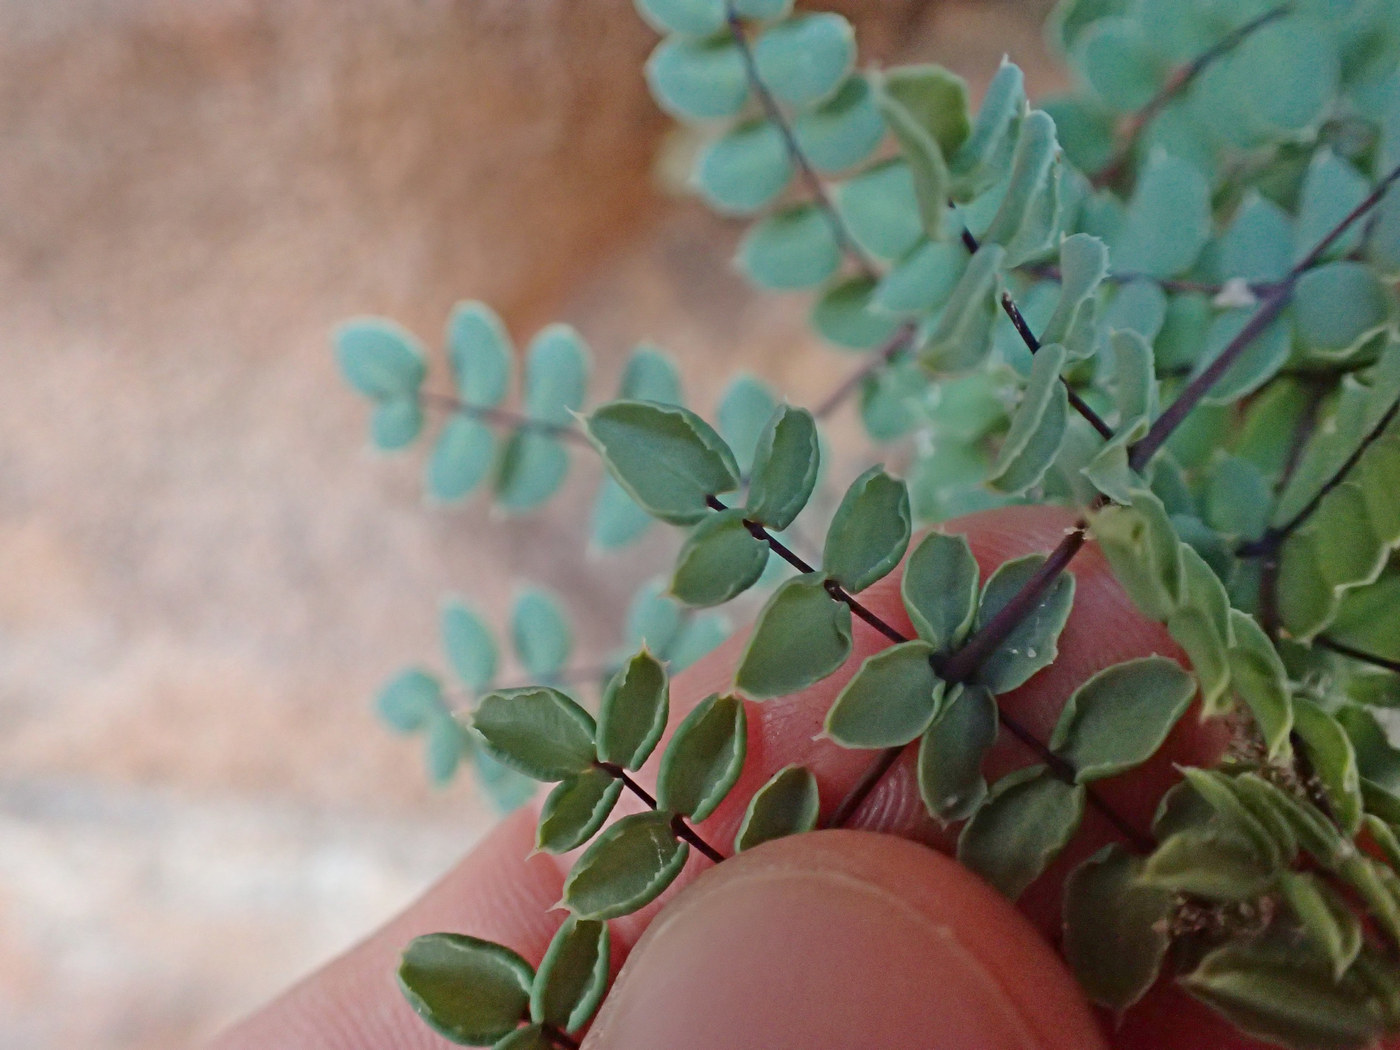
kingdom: Plantae
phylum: Tracheophyta
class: Polypodiopsida
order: Polypodiales
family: Pteridaceae
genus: Pellaea
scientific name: Pellaea truncata
